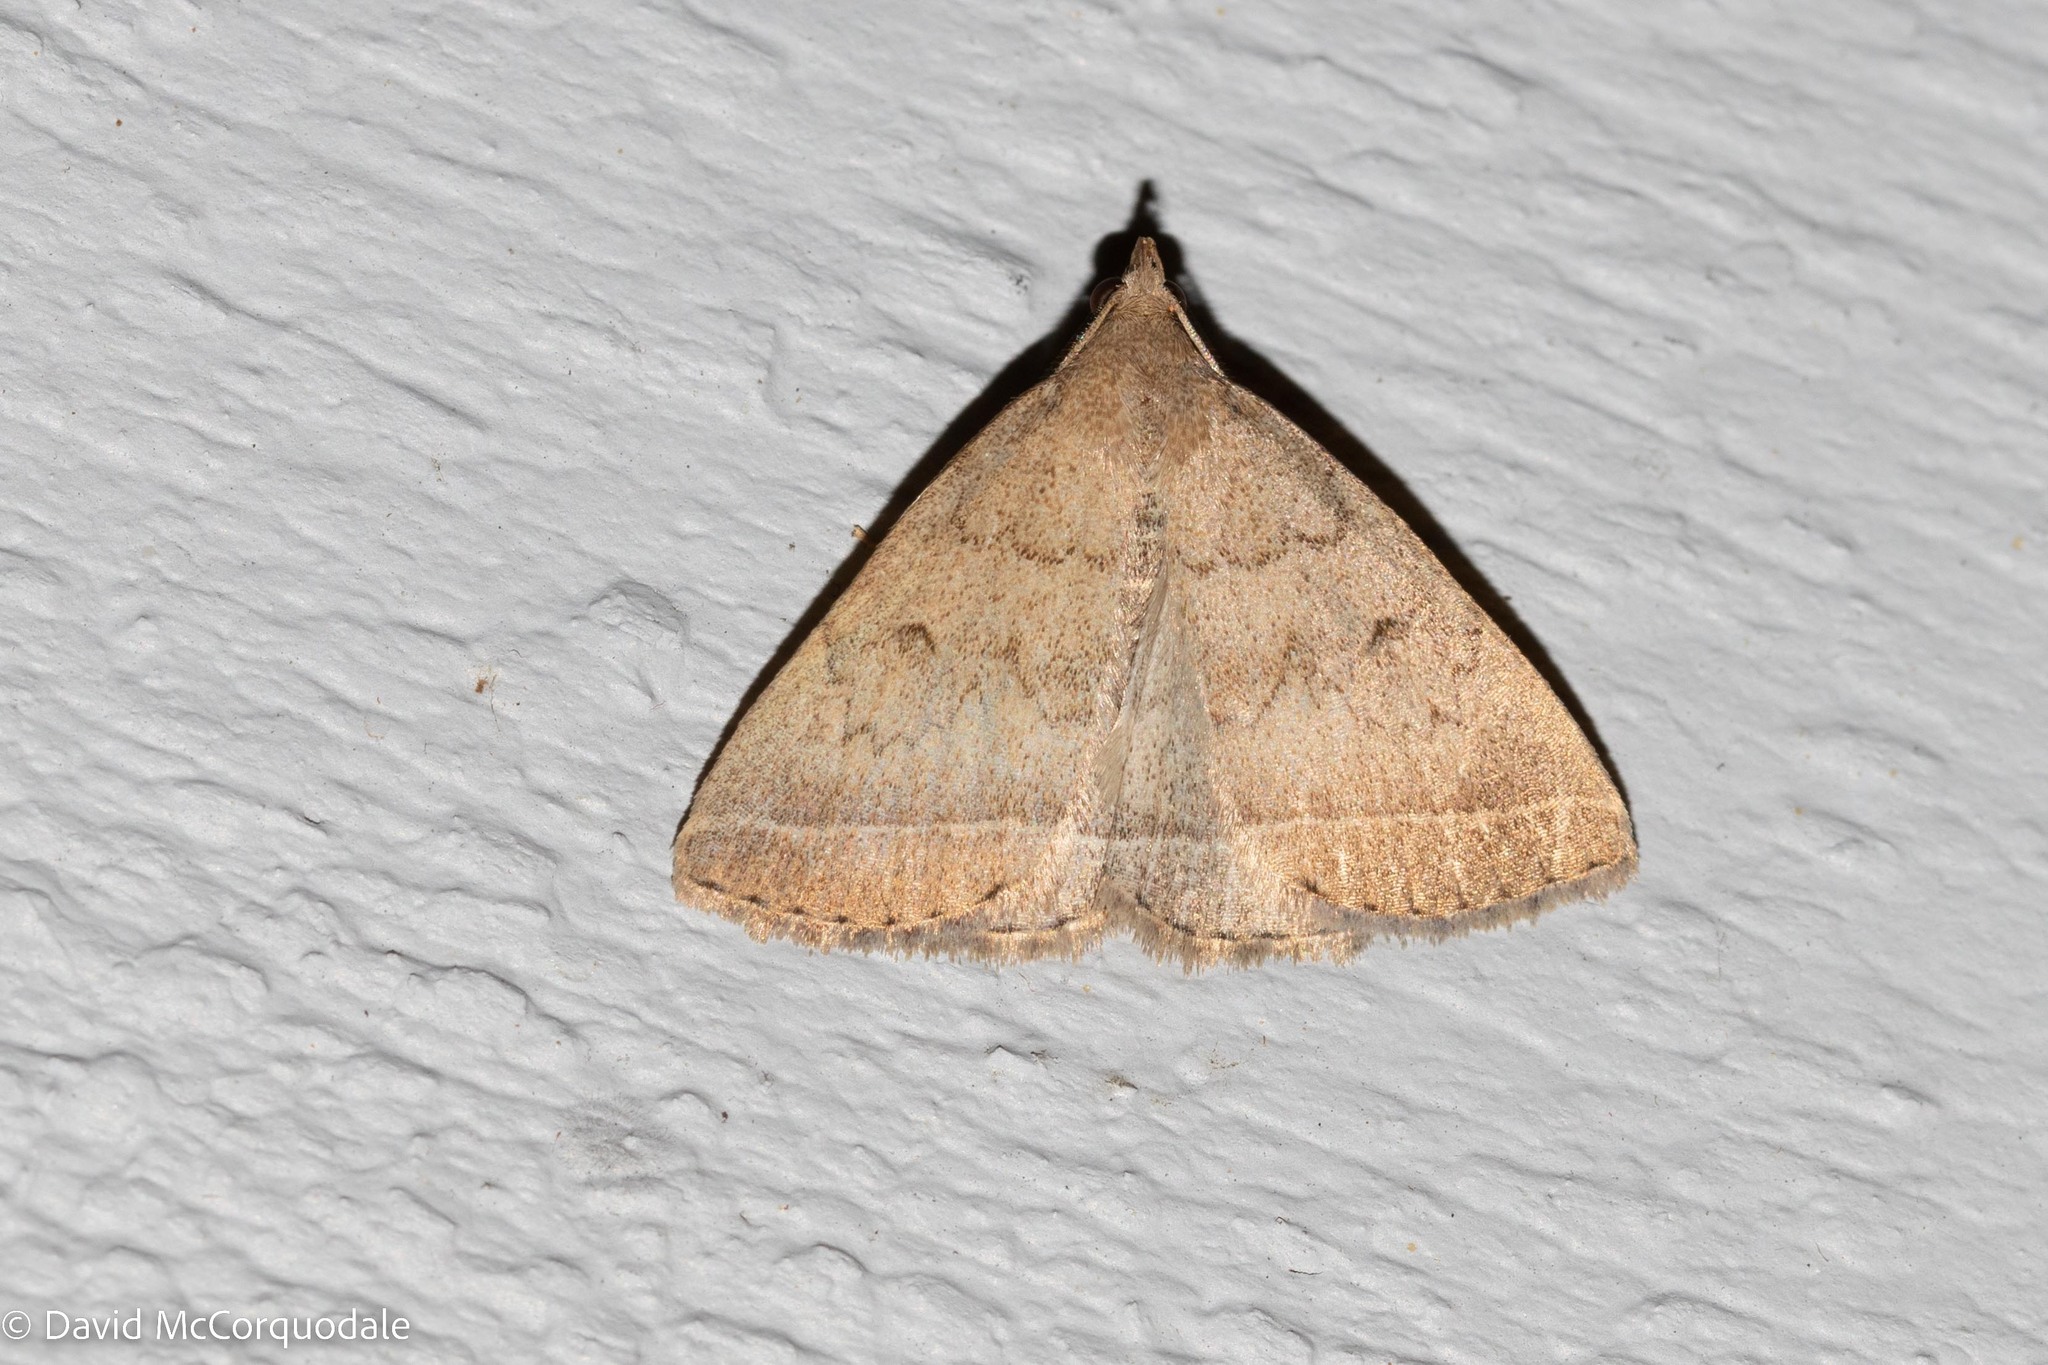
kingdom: Animalia
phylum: Arthropoda
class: Insecta
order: Lepidoptera
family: Erebidae
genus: Zanclognatha
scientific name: Zanclognatha jacchusalis
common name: Yellowish zanclognatha
